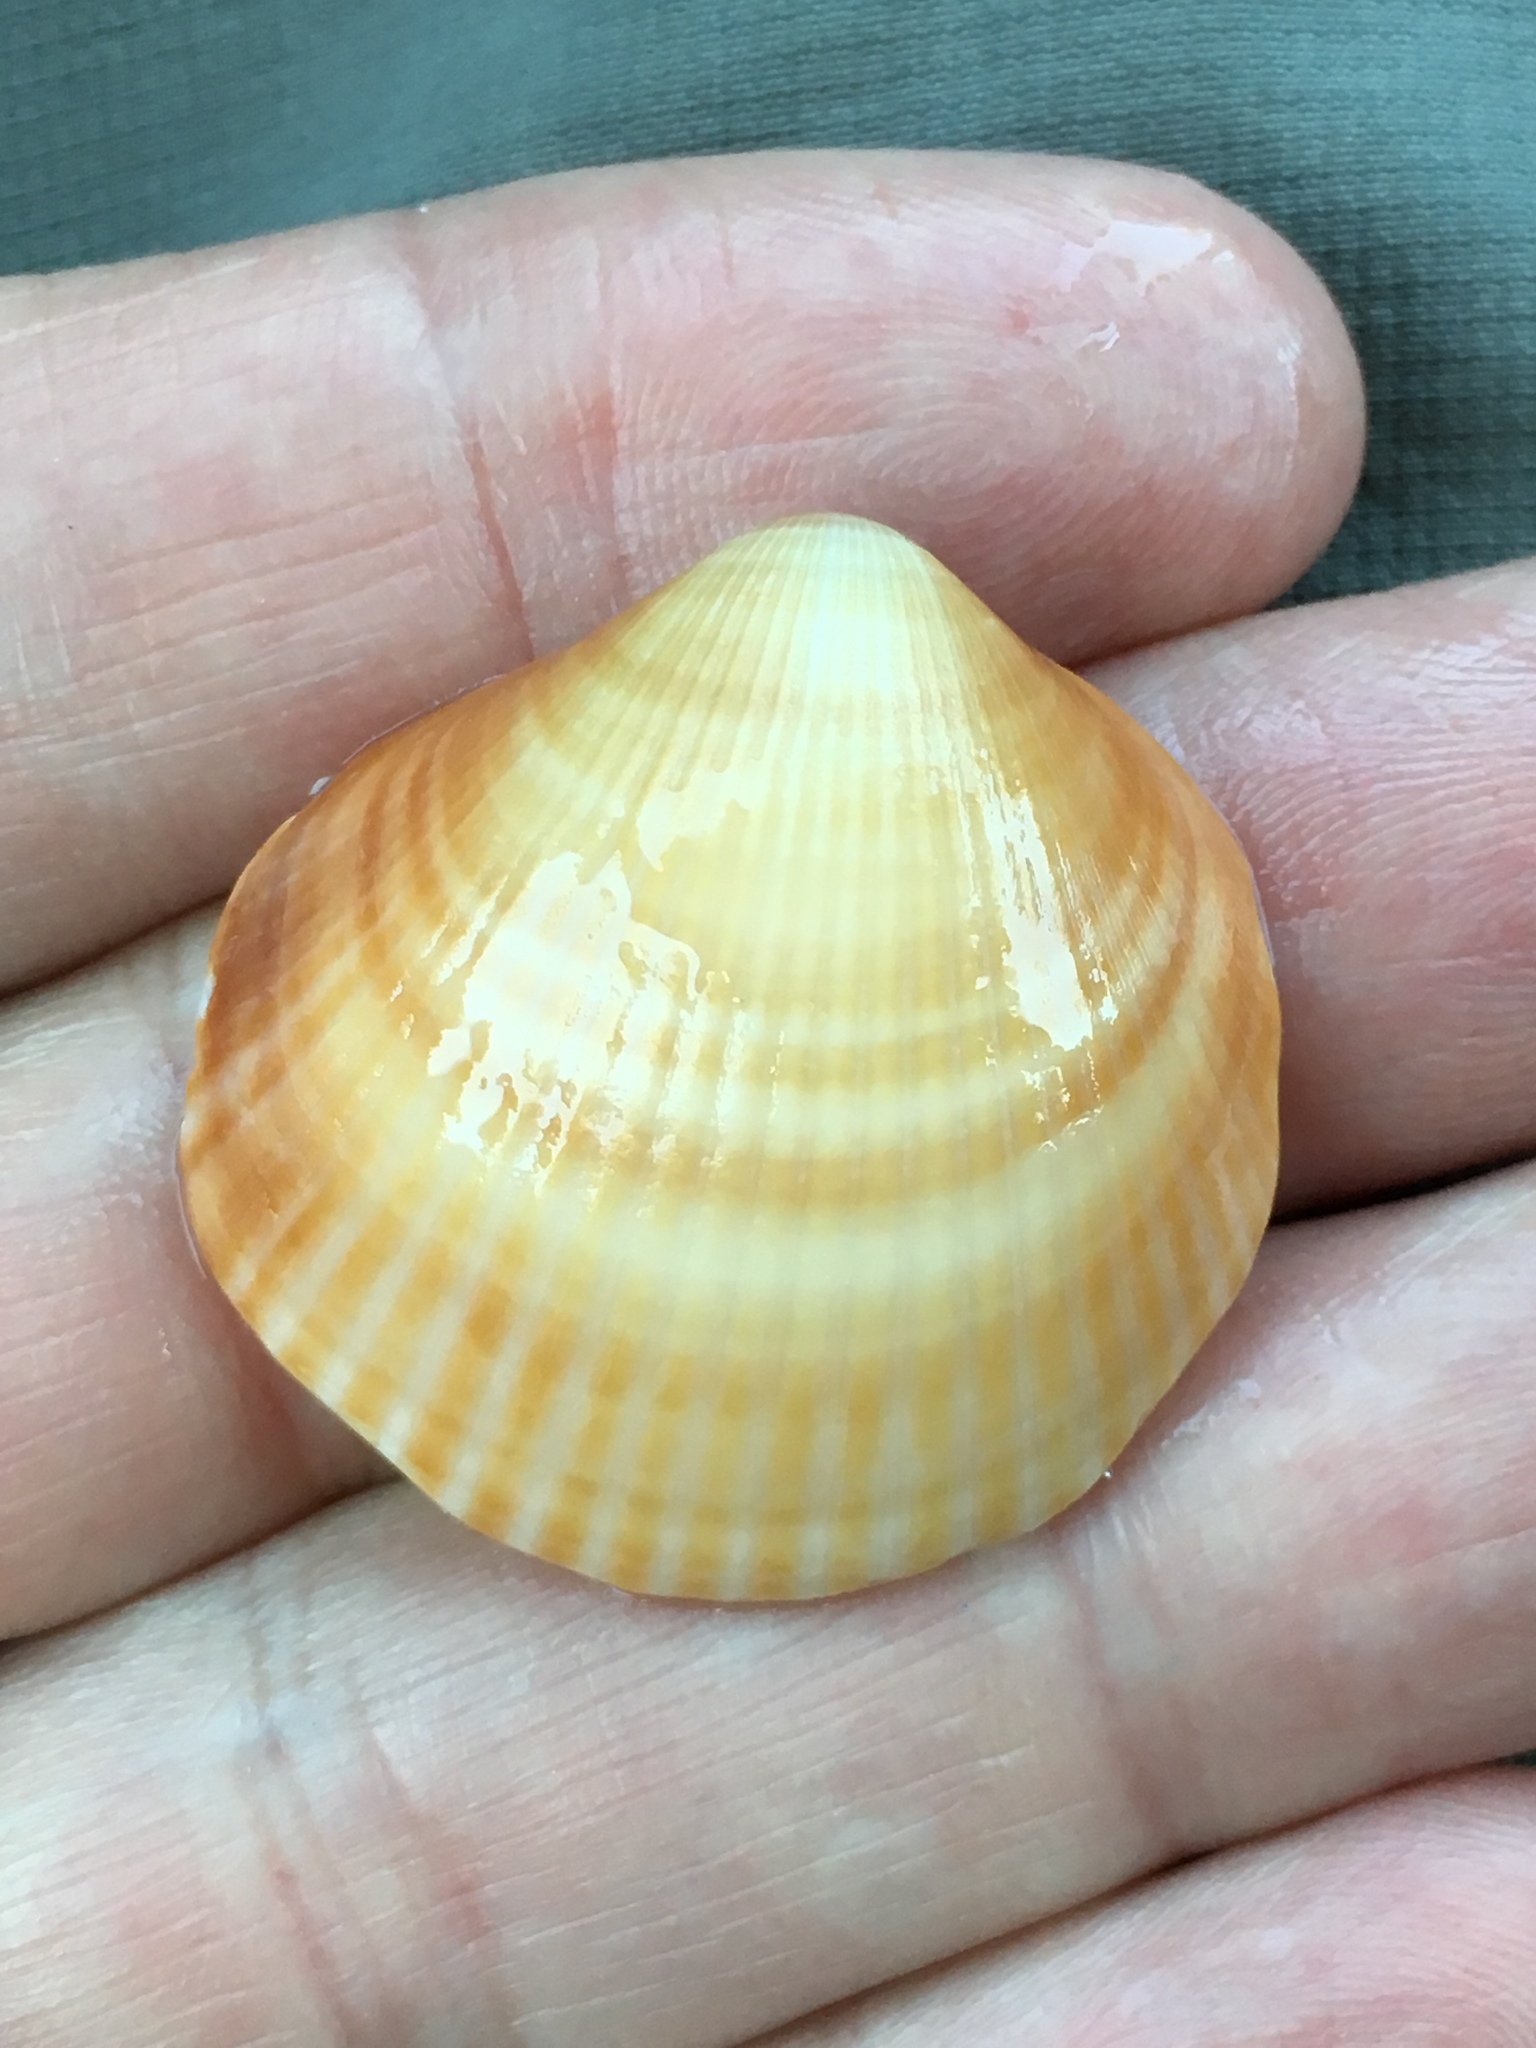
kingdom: Animalia
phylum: Mollusca
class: Bivalvia
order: Arcida
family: Glycymerididae
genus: Glycymeris
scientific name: Glycymeris spectralis
